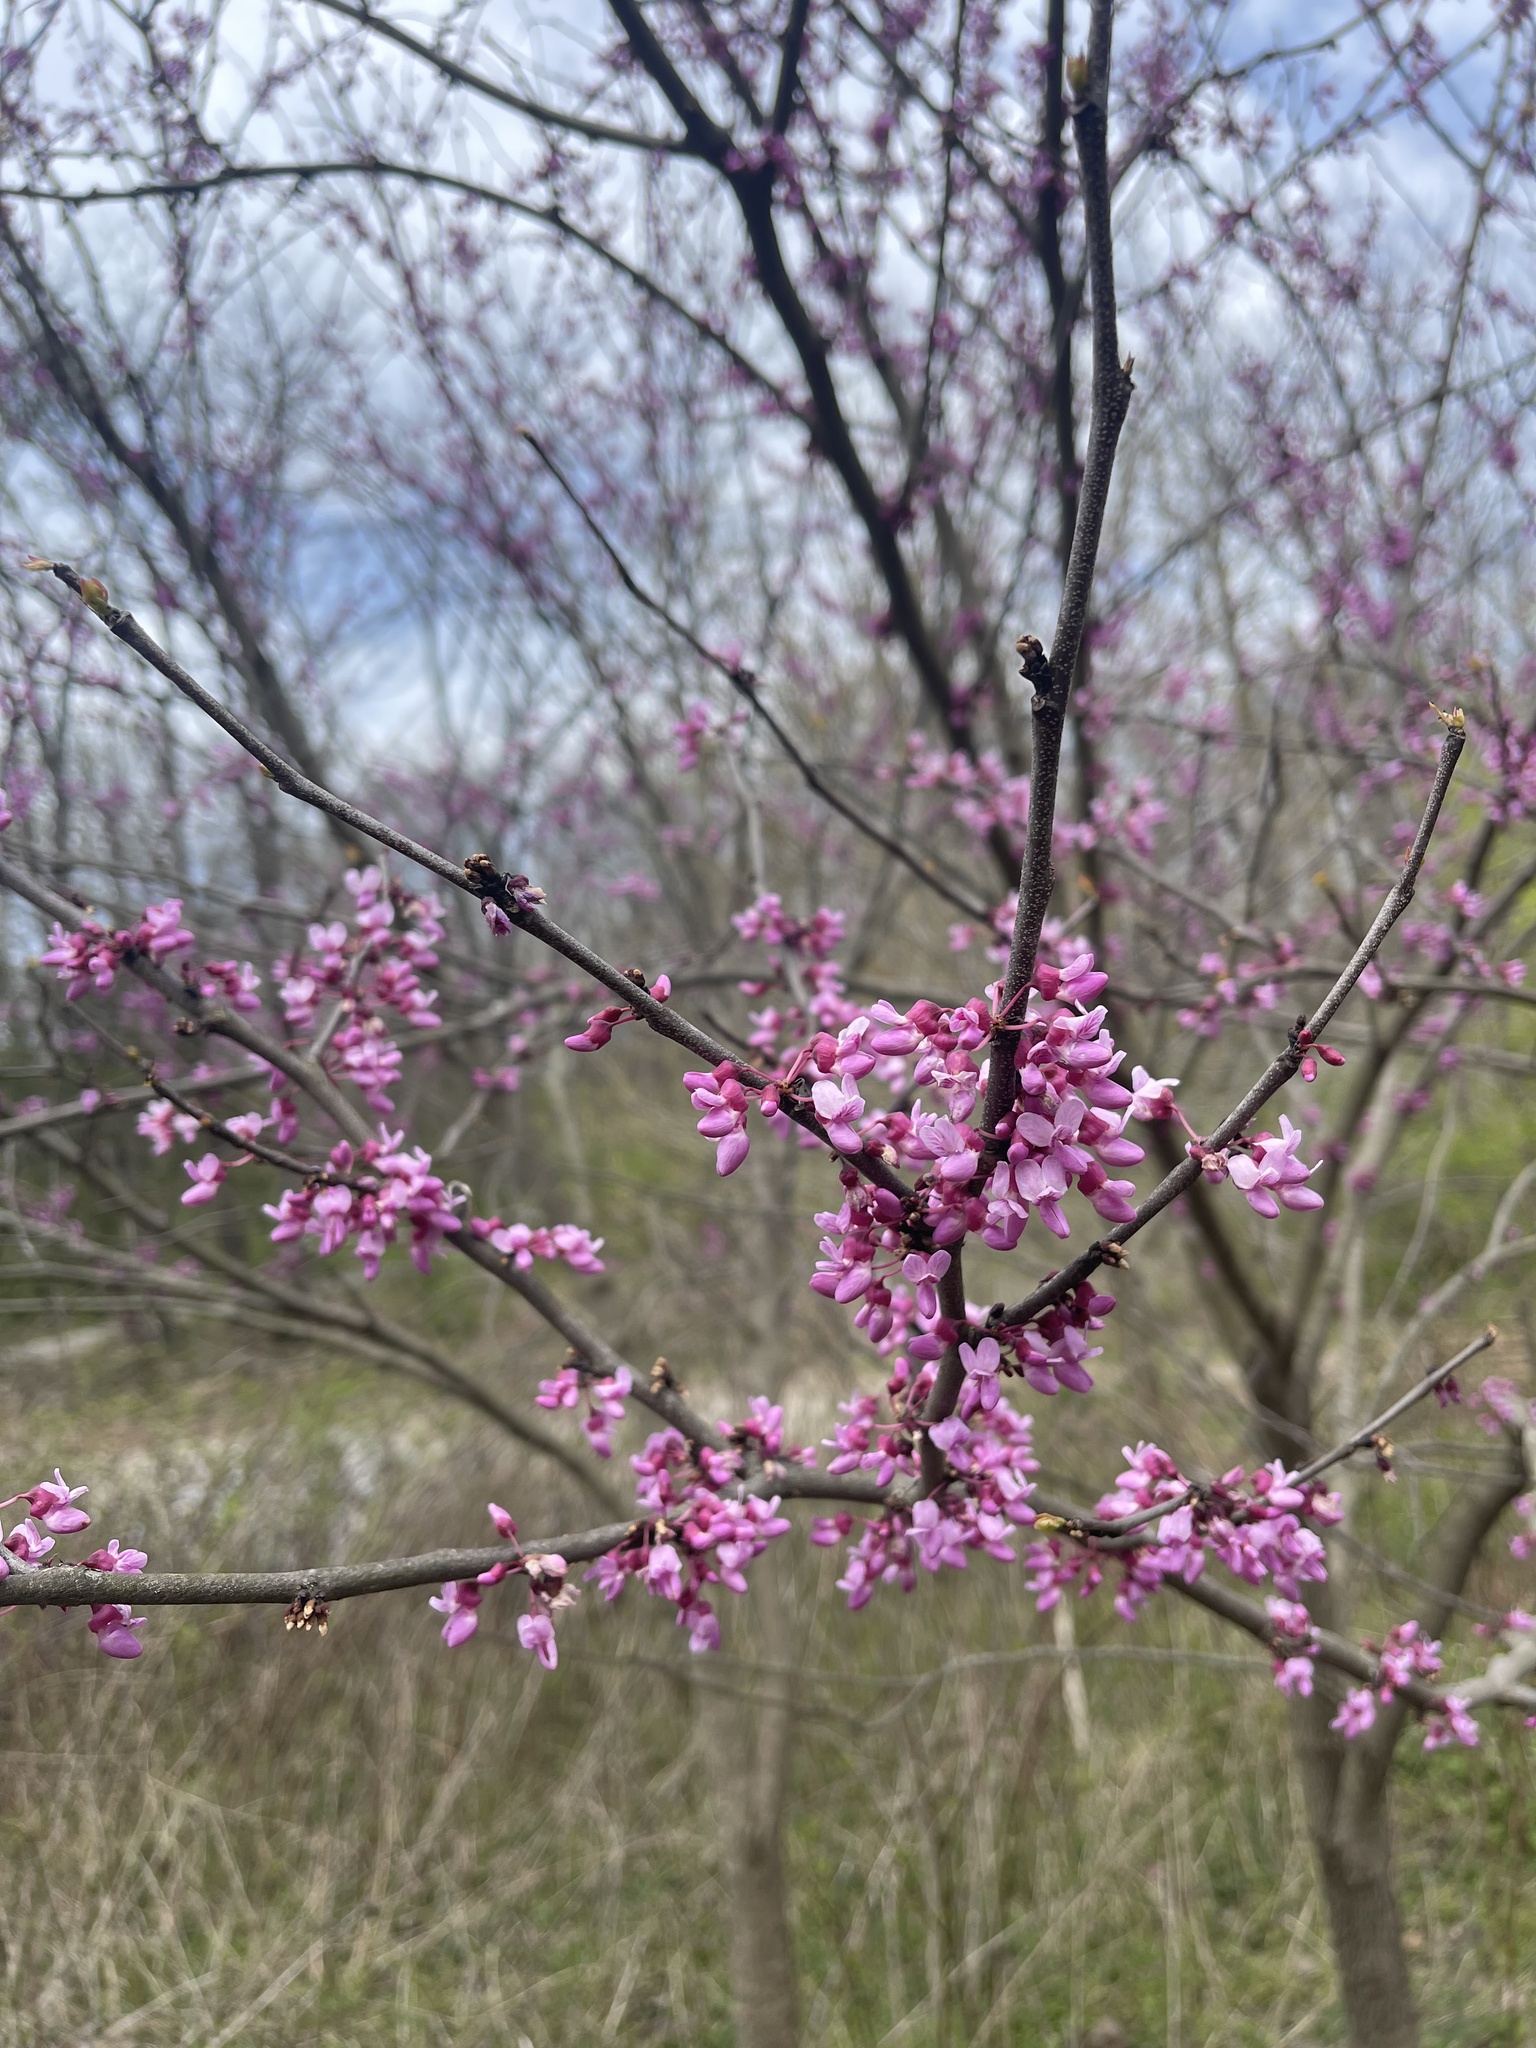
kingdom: Plantae
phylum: Tracheophyta
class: Magnoliopsida
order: Fabales
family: Fabaceae
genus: Cercis
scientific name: Cercis canadensis
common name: Eastern redbud
